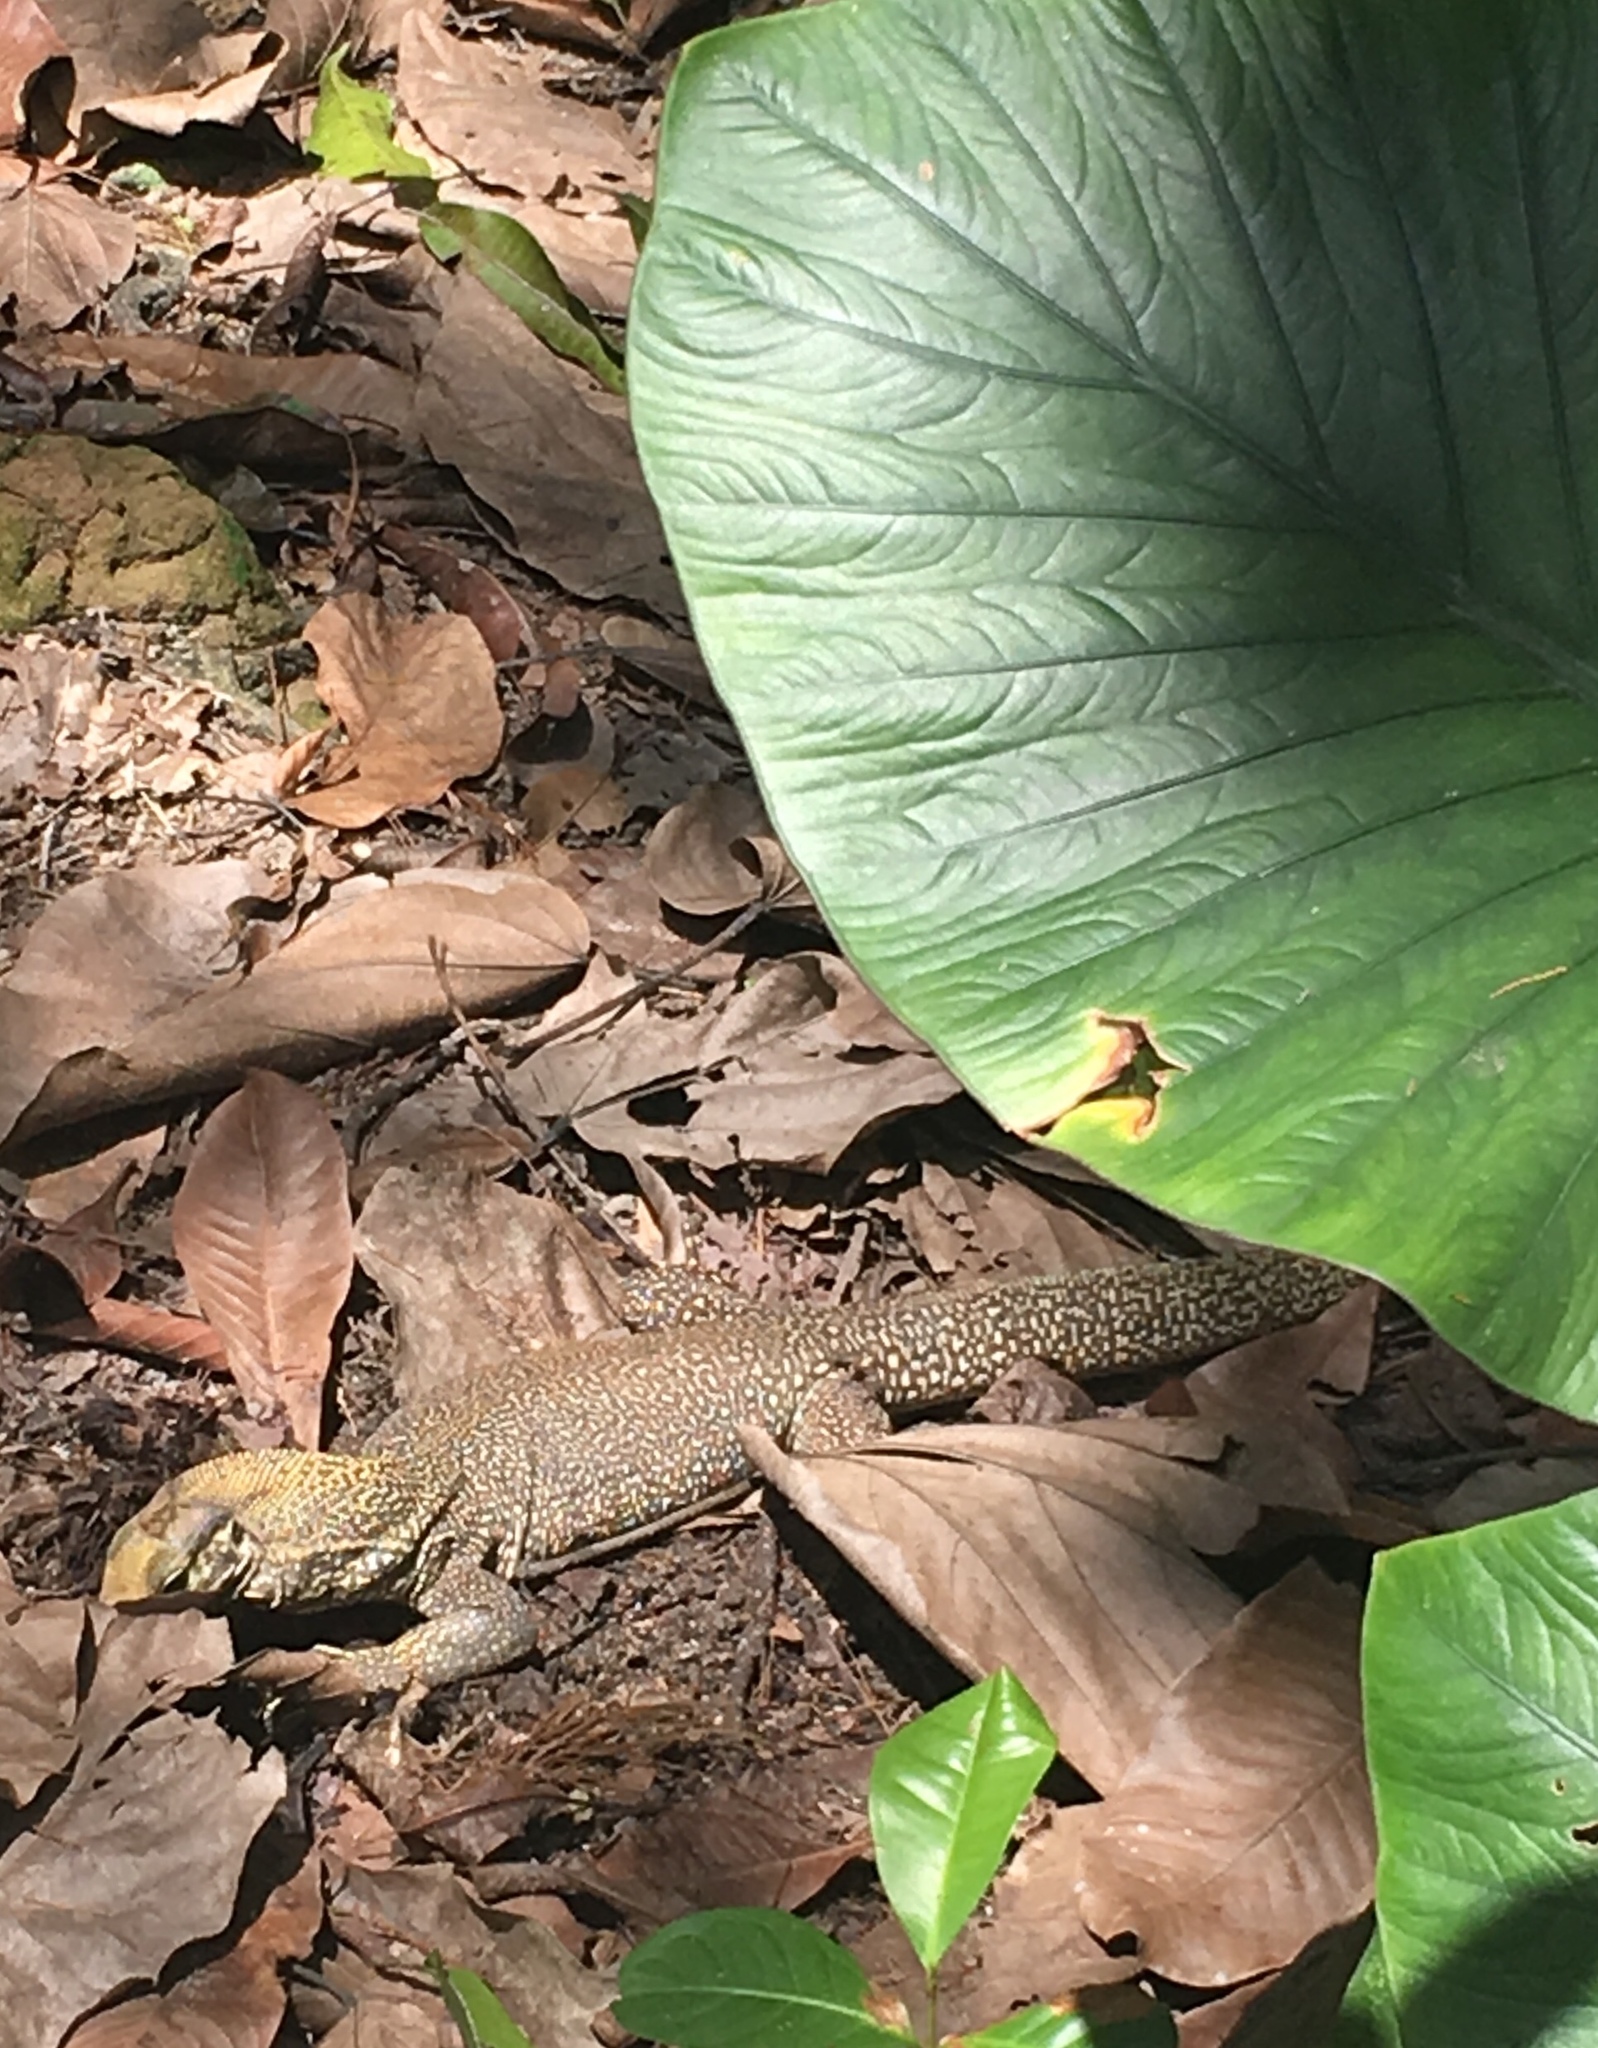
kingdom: Animalia
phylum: Chordata
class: Squamata
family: Varanidae
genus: Varanus
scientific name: Varanus nebulosus
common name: Clouded monitor
